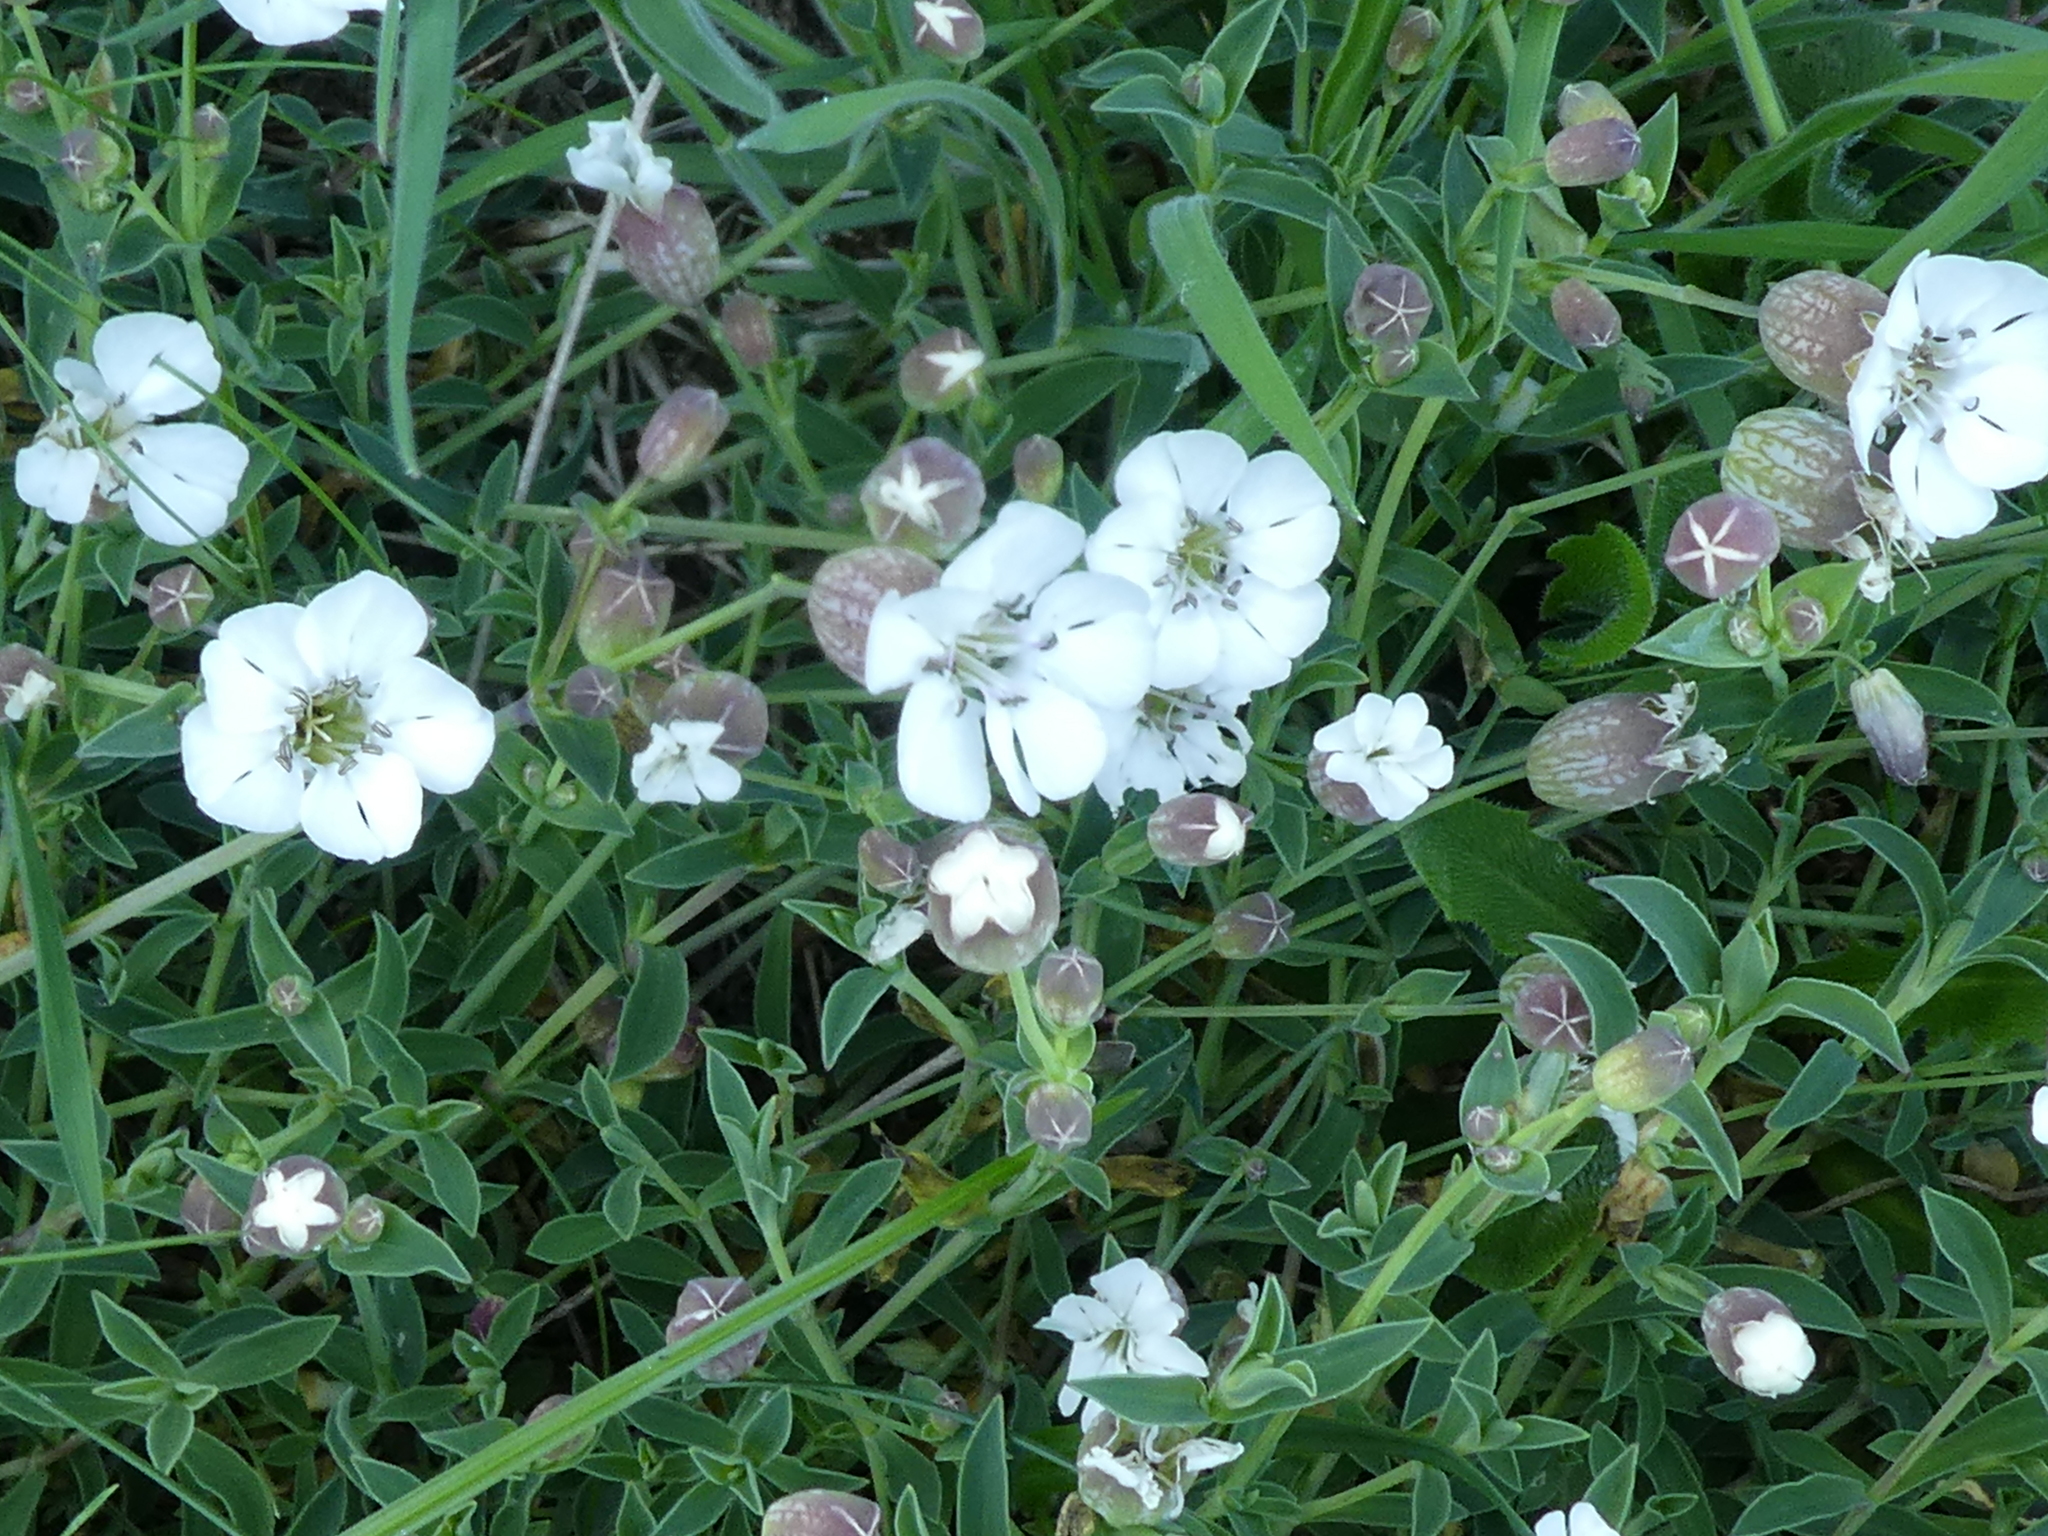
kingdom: Plantae
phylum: Tracheophyta
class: Magnoliopsida
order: Caryophyllales
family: Caryophyllaceae
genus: Silene
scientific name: Silene uniflora
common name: Sea campion
